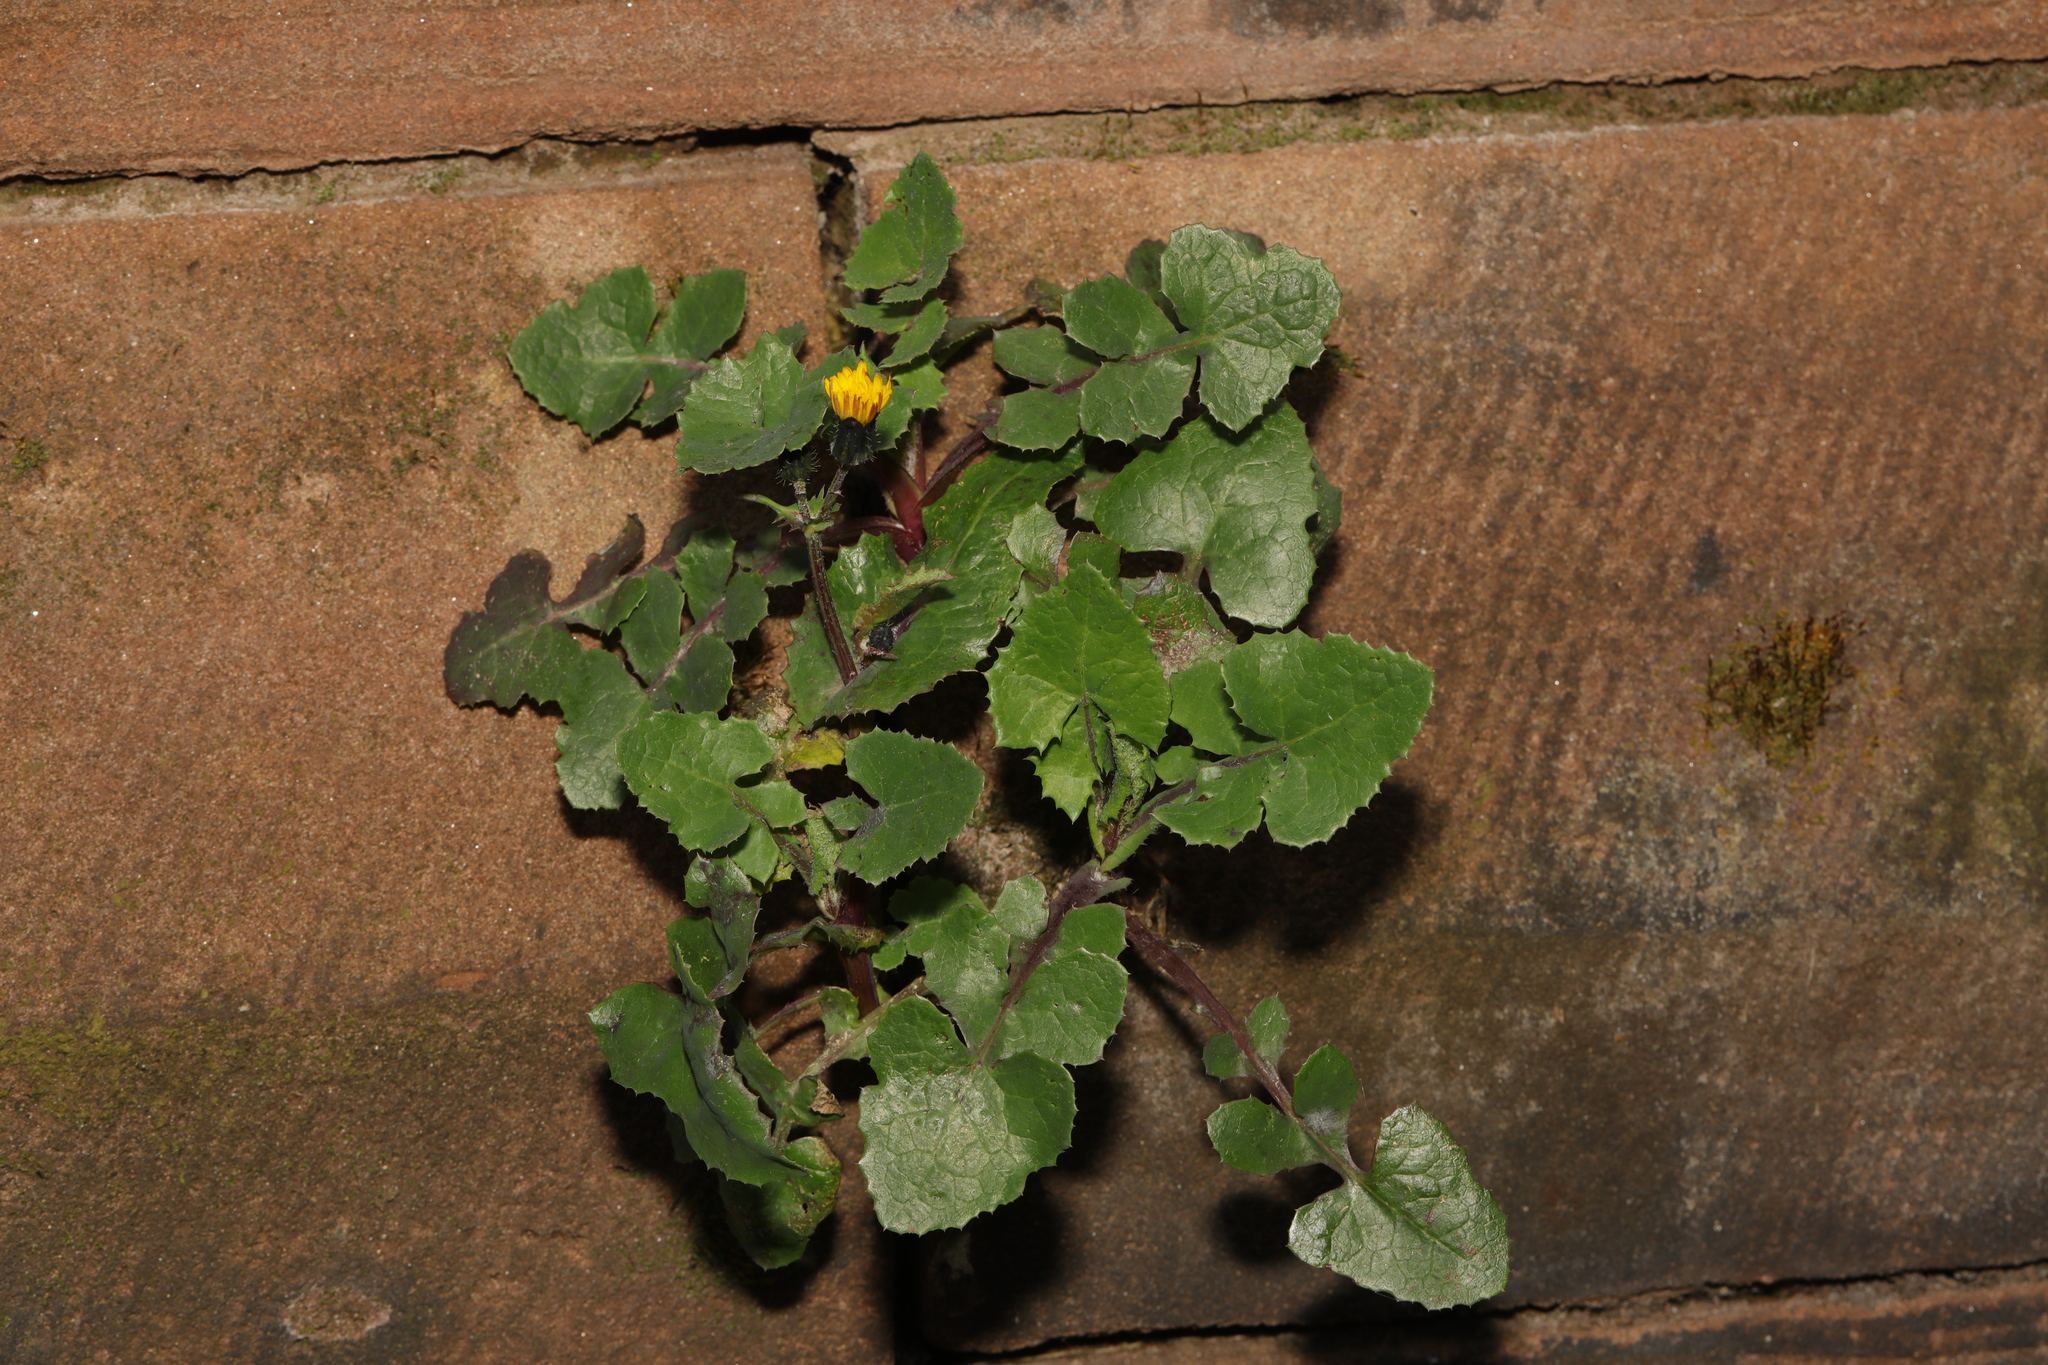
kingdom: Plantae
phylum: Tracheophyta
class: Magnoliopsida
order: Asterales
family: Asteraceae
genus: Sonchus
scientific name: Sonchus oleraceus
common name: Common sowthistle
